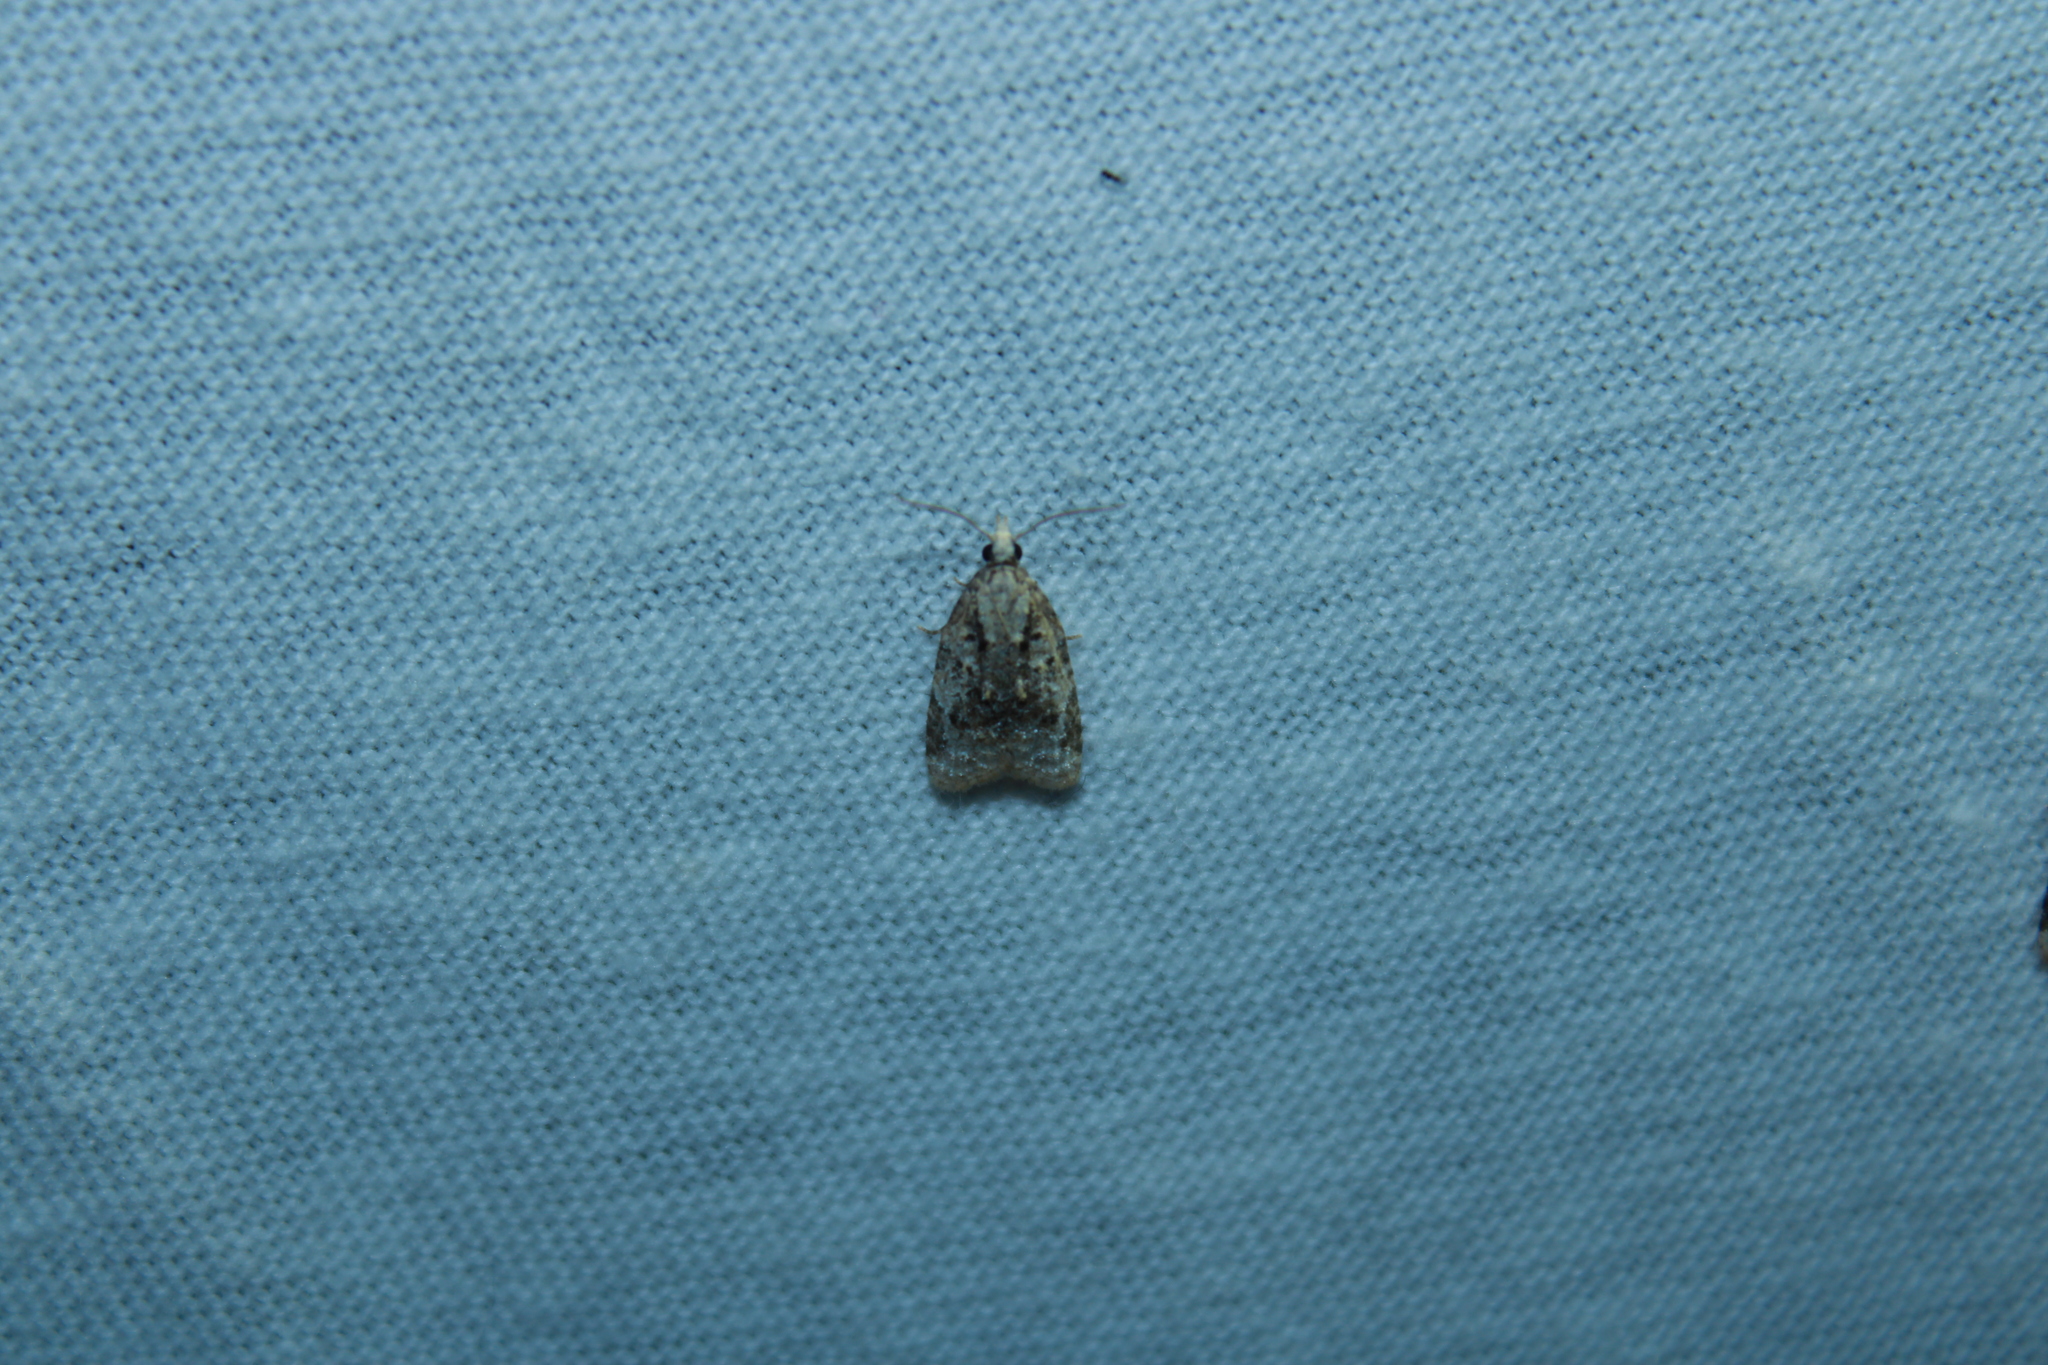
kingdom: Animalia
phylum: Arthropoda
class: Insecta
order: Lepidoptera
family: Tortricidae
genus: Platynota
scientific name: Platynota exasperatana
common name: Exasperating platynota moth
